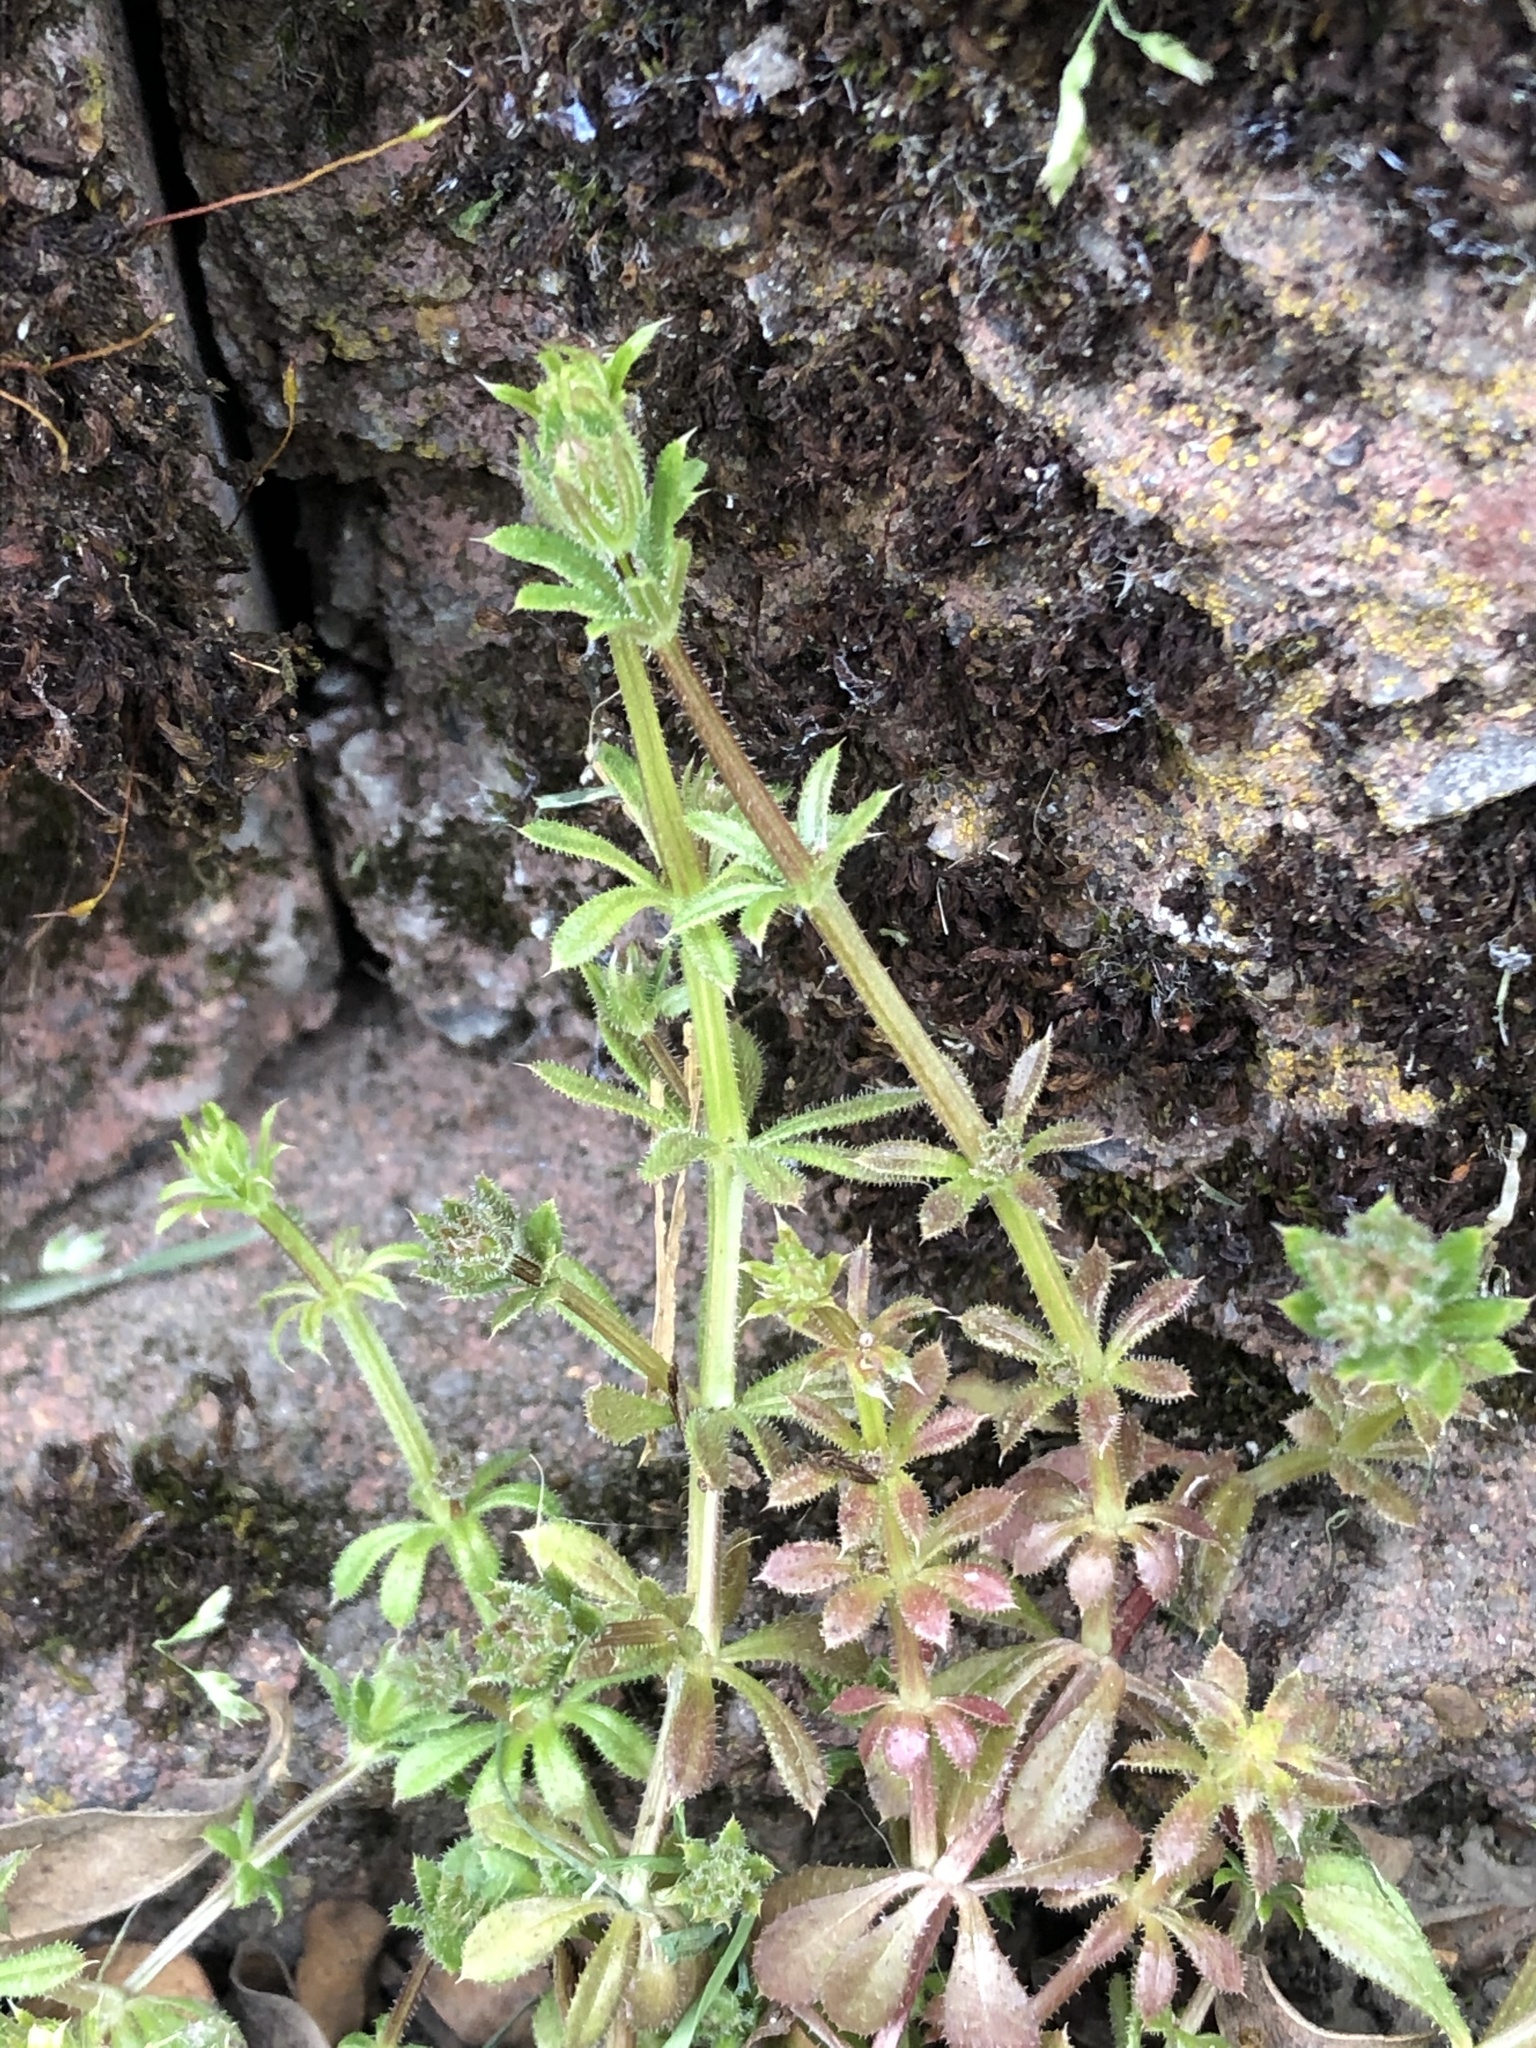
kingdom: Plantae
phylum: Tracheophyta
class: Magnoliopsida
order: Gentianales
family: Rubiaceae
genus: Galium
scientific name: Galium aparine
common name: Cleavers
